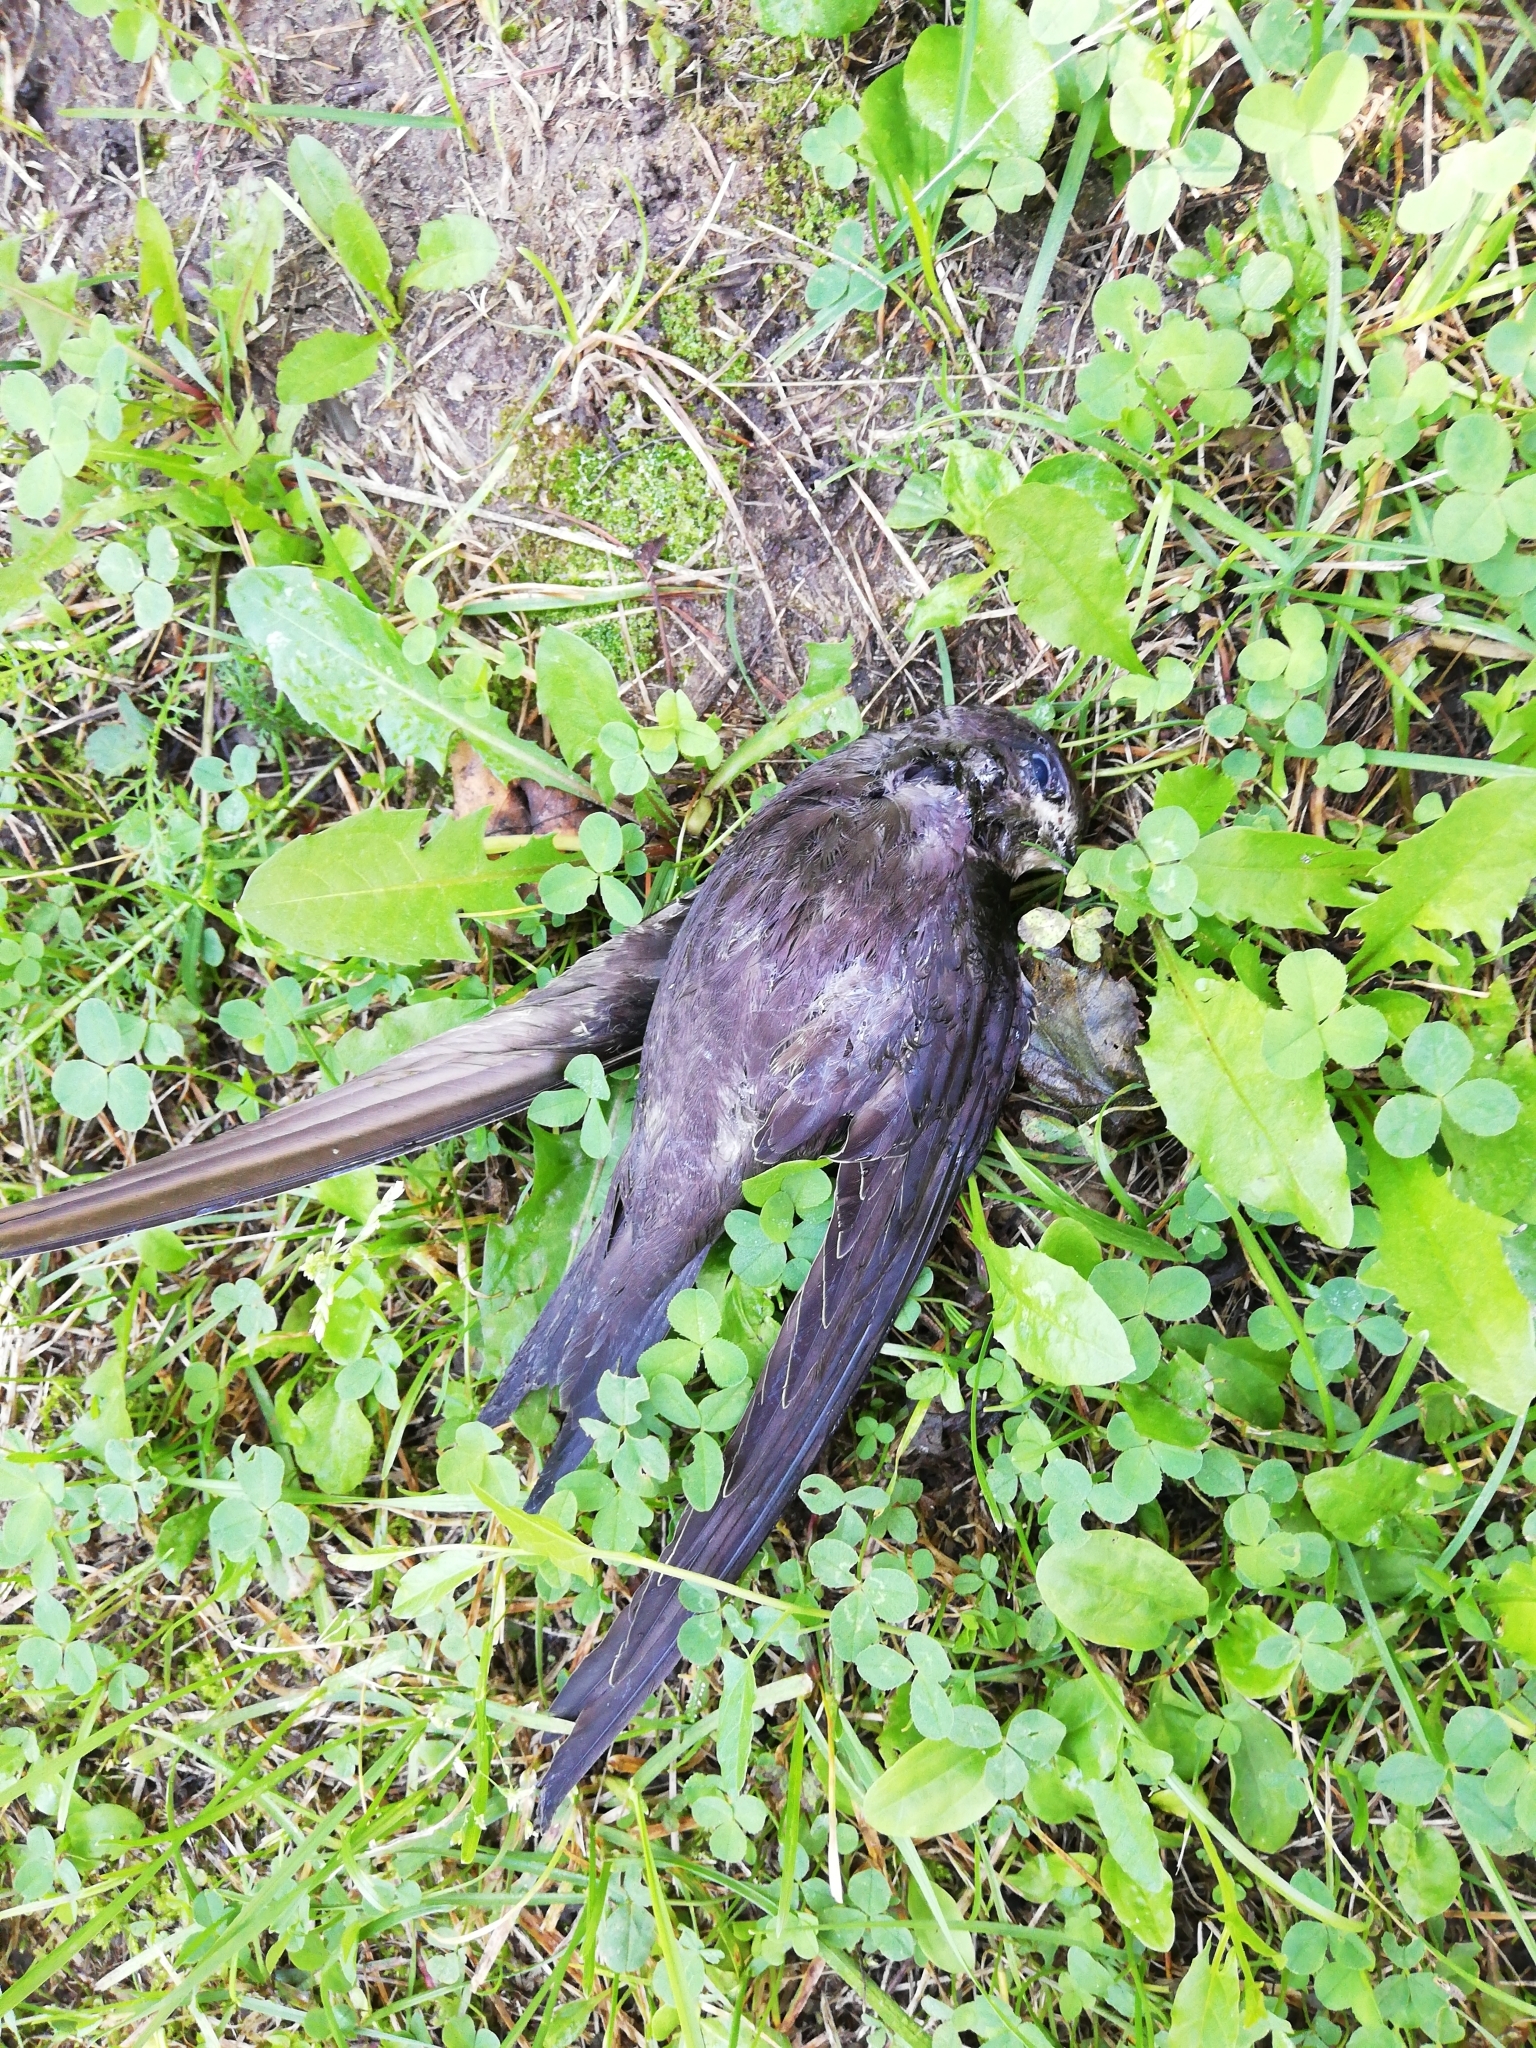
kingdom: Animalia
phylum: Chordata
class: Aves
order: Apodiformes
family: Apodidae
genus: Apus
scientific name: Apus apus
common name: Common swift
